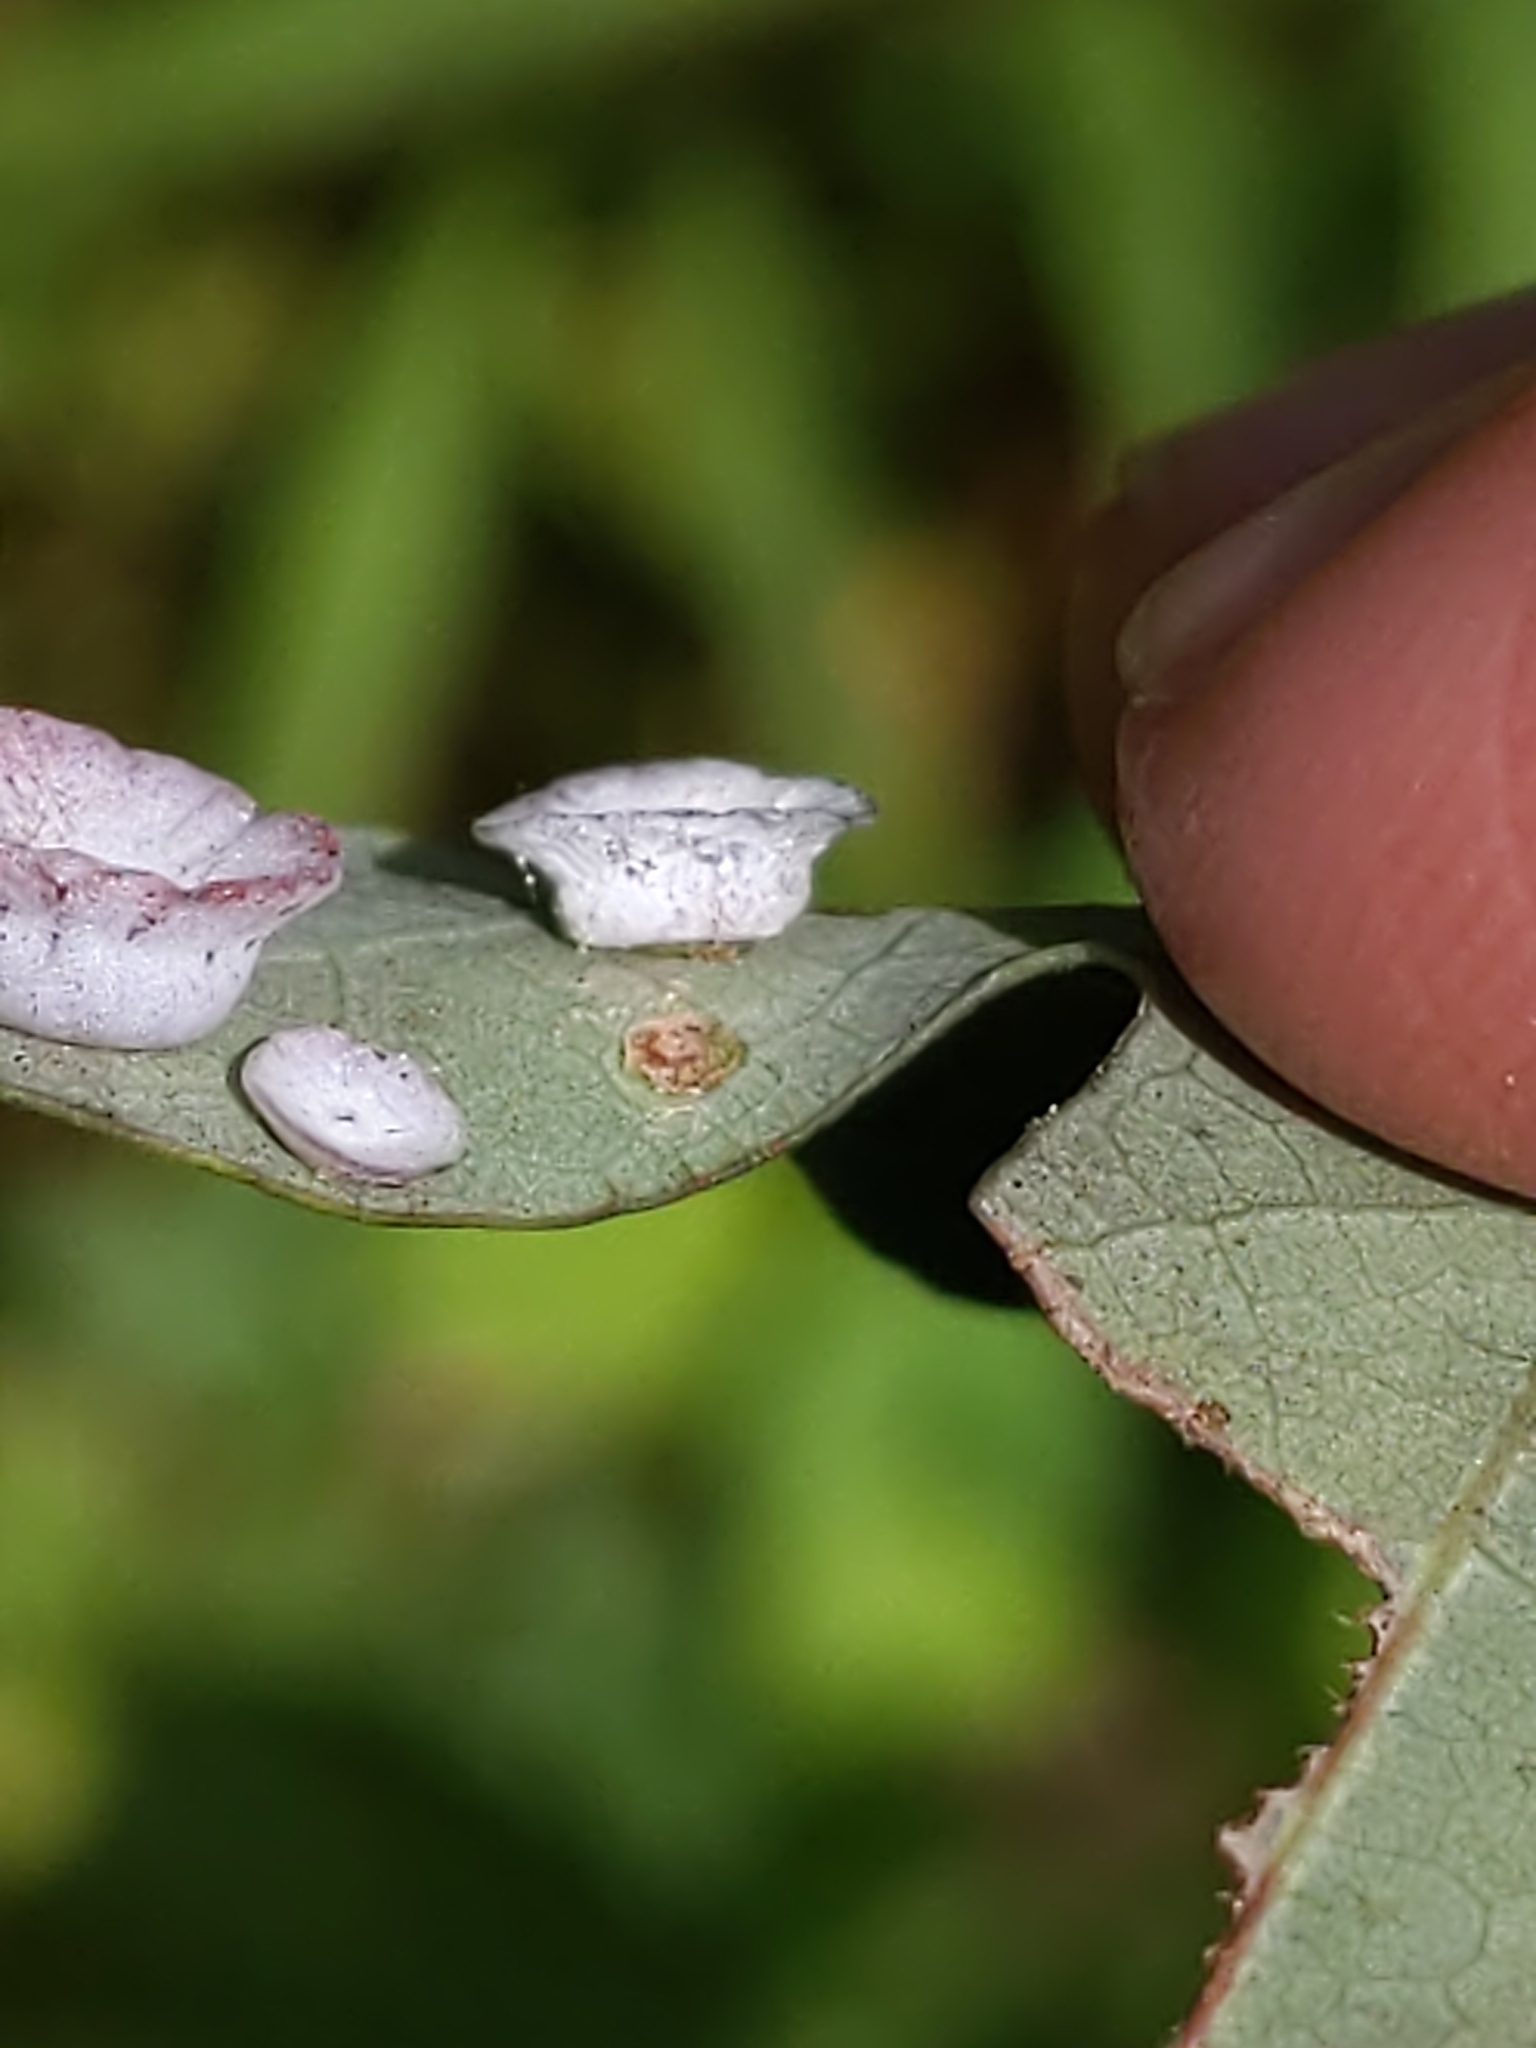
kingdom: Animalia
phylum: Arthropoda
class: Insecta
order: Hymenoptera
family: Cynipidae
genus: Phylloteras
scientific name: Phylloteras poculum
